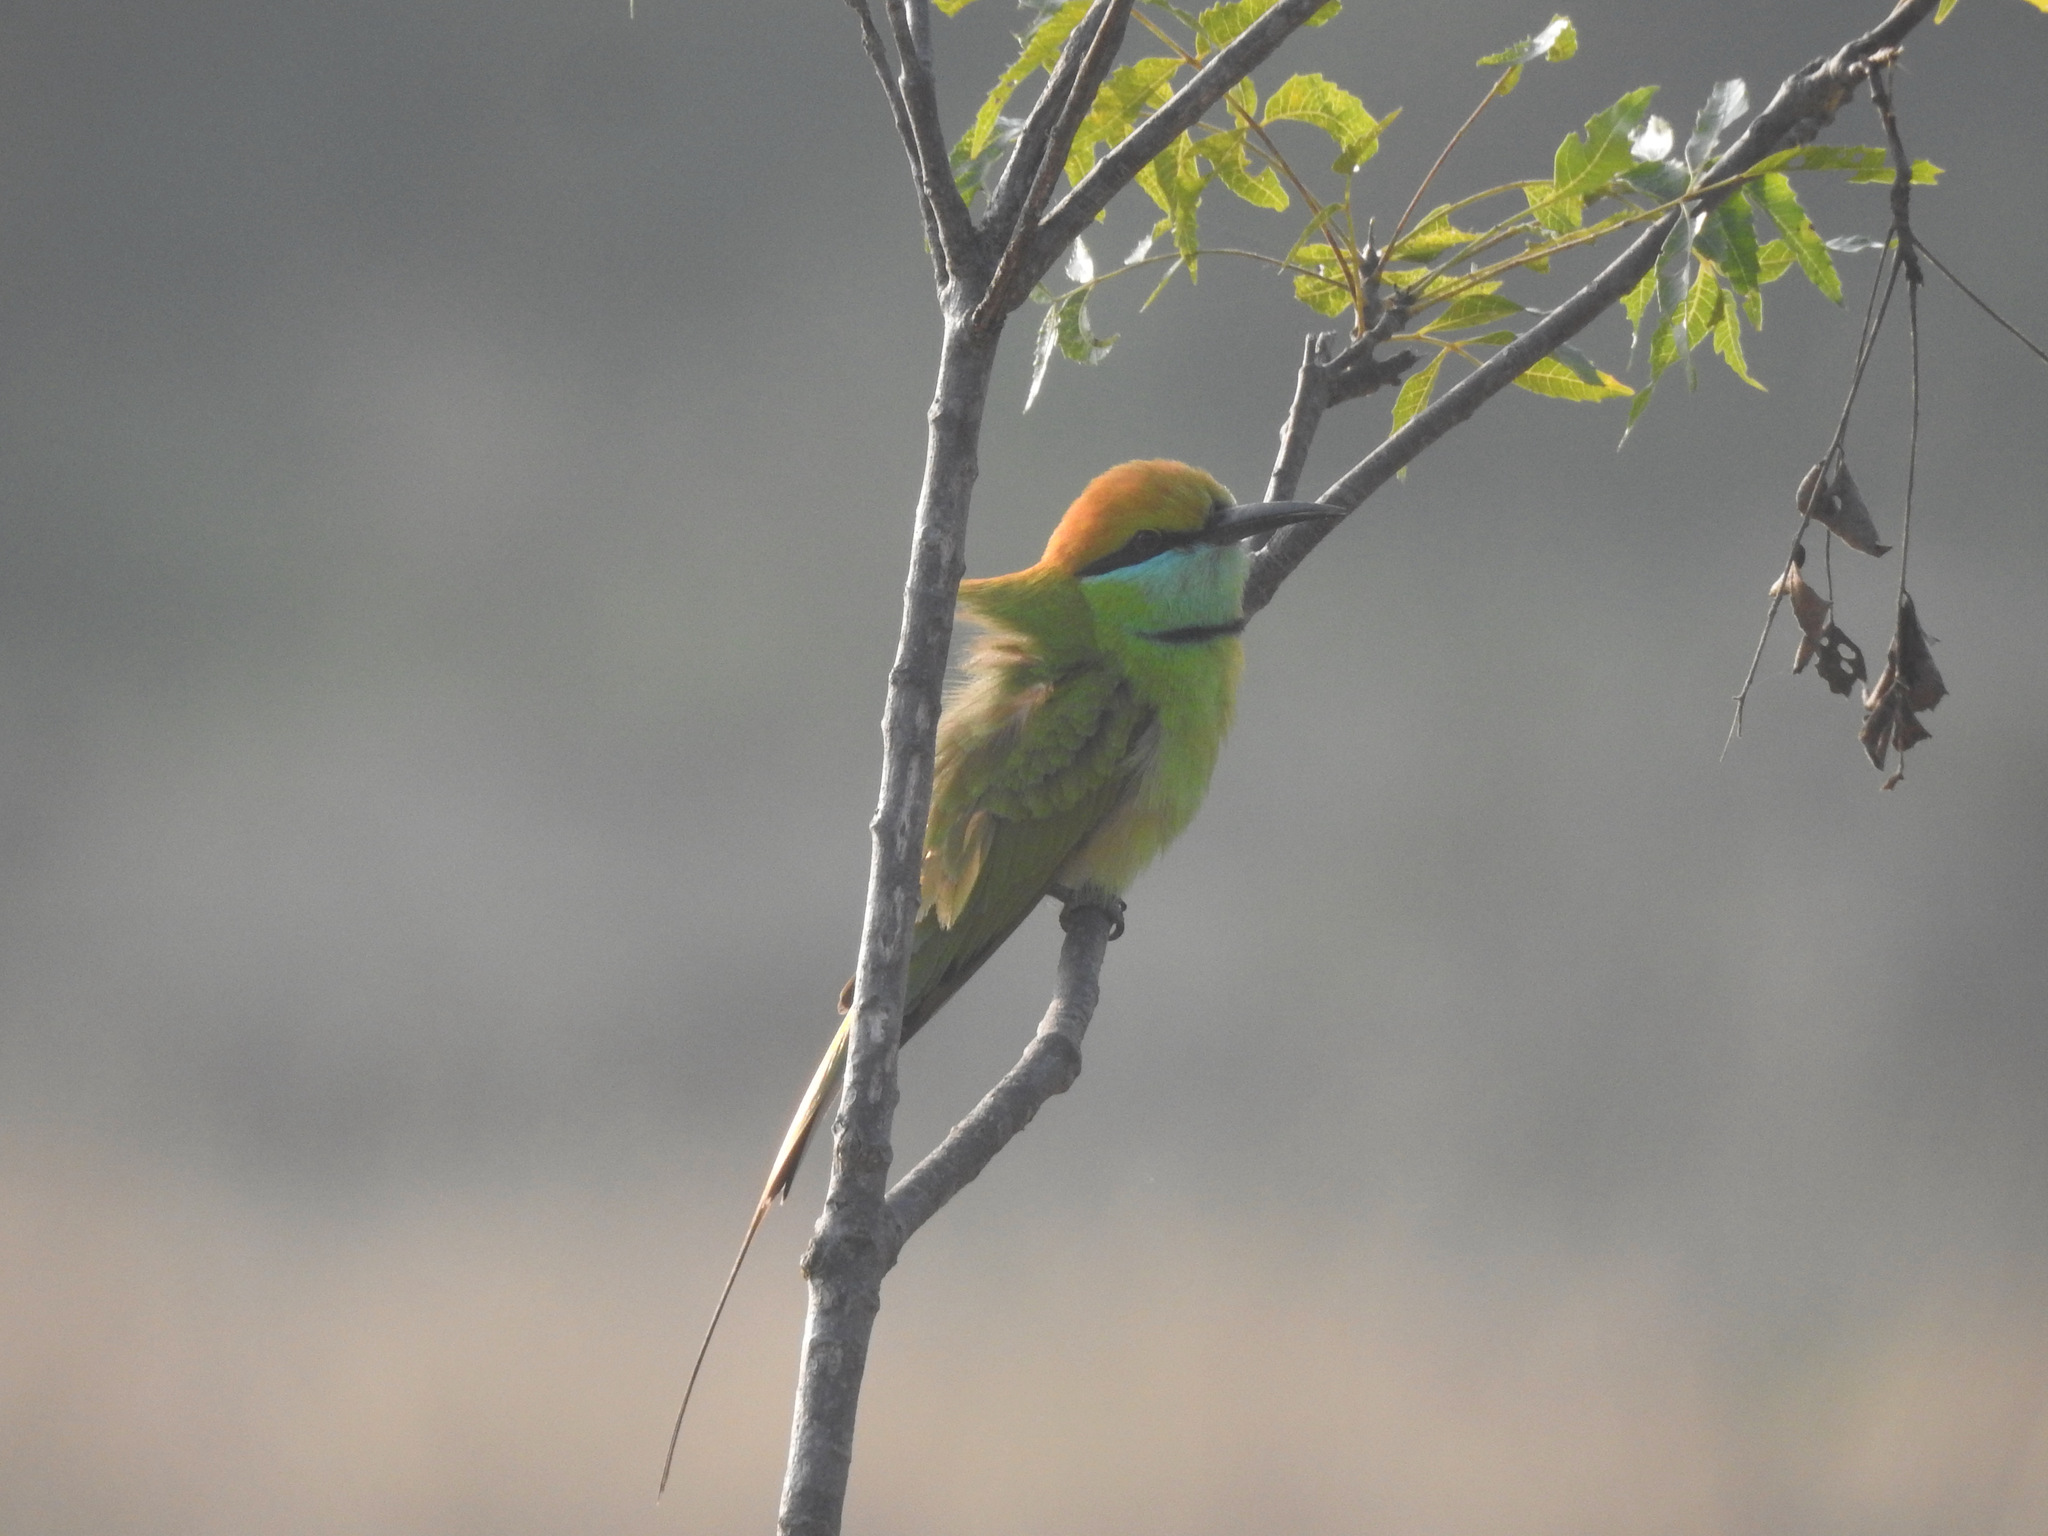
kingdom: Animalia
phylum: Chordata
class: Aves
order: Coraciiformes
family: Meropidae
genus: Merops
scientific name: Merops orientalis
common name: Green bee-eater
